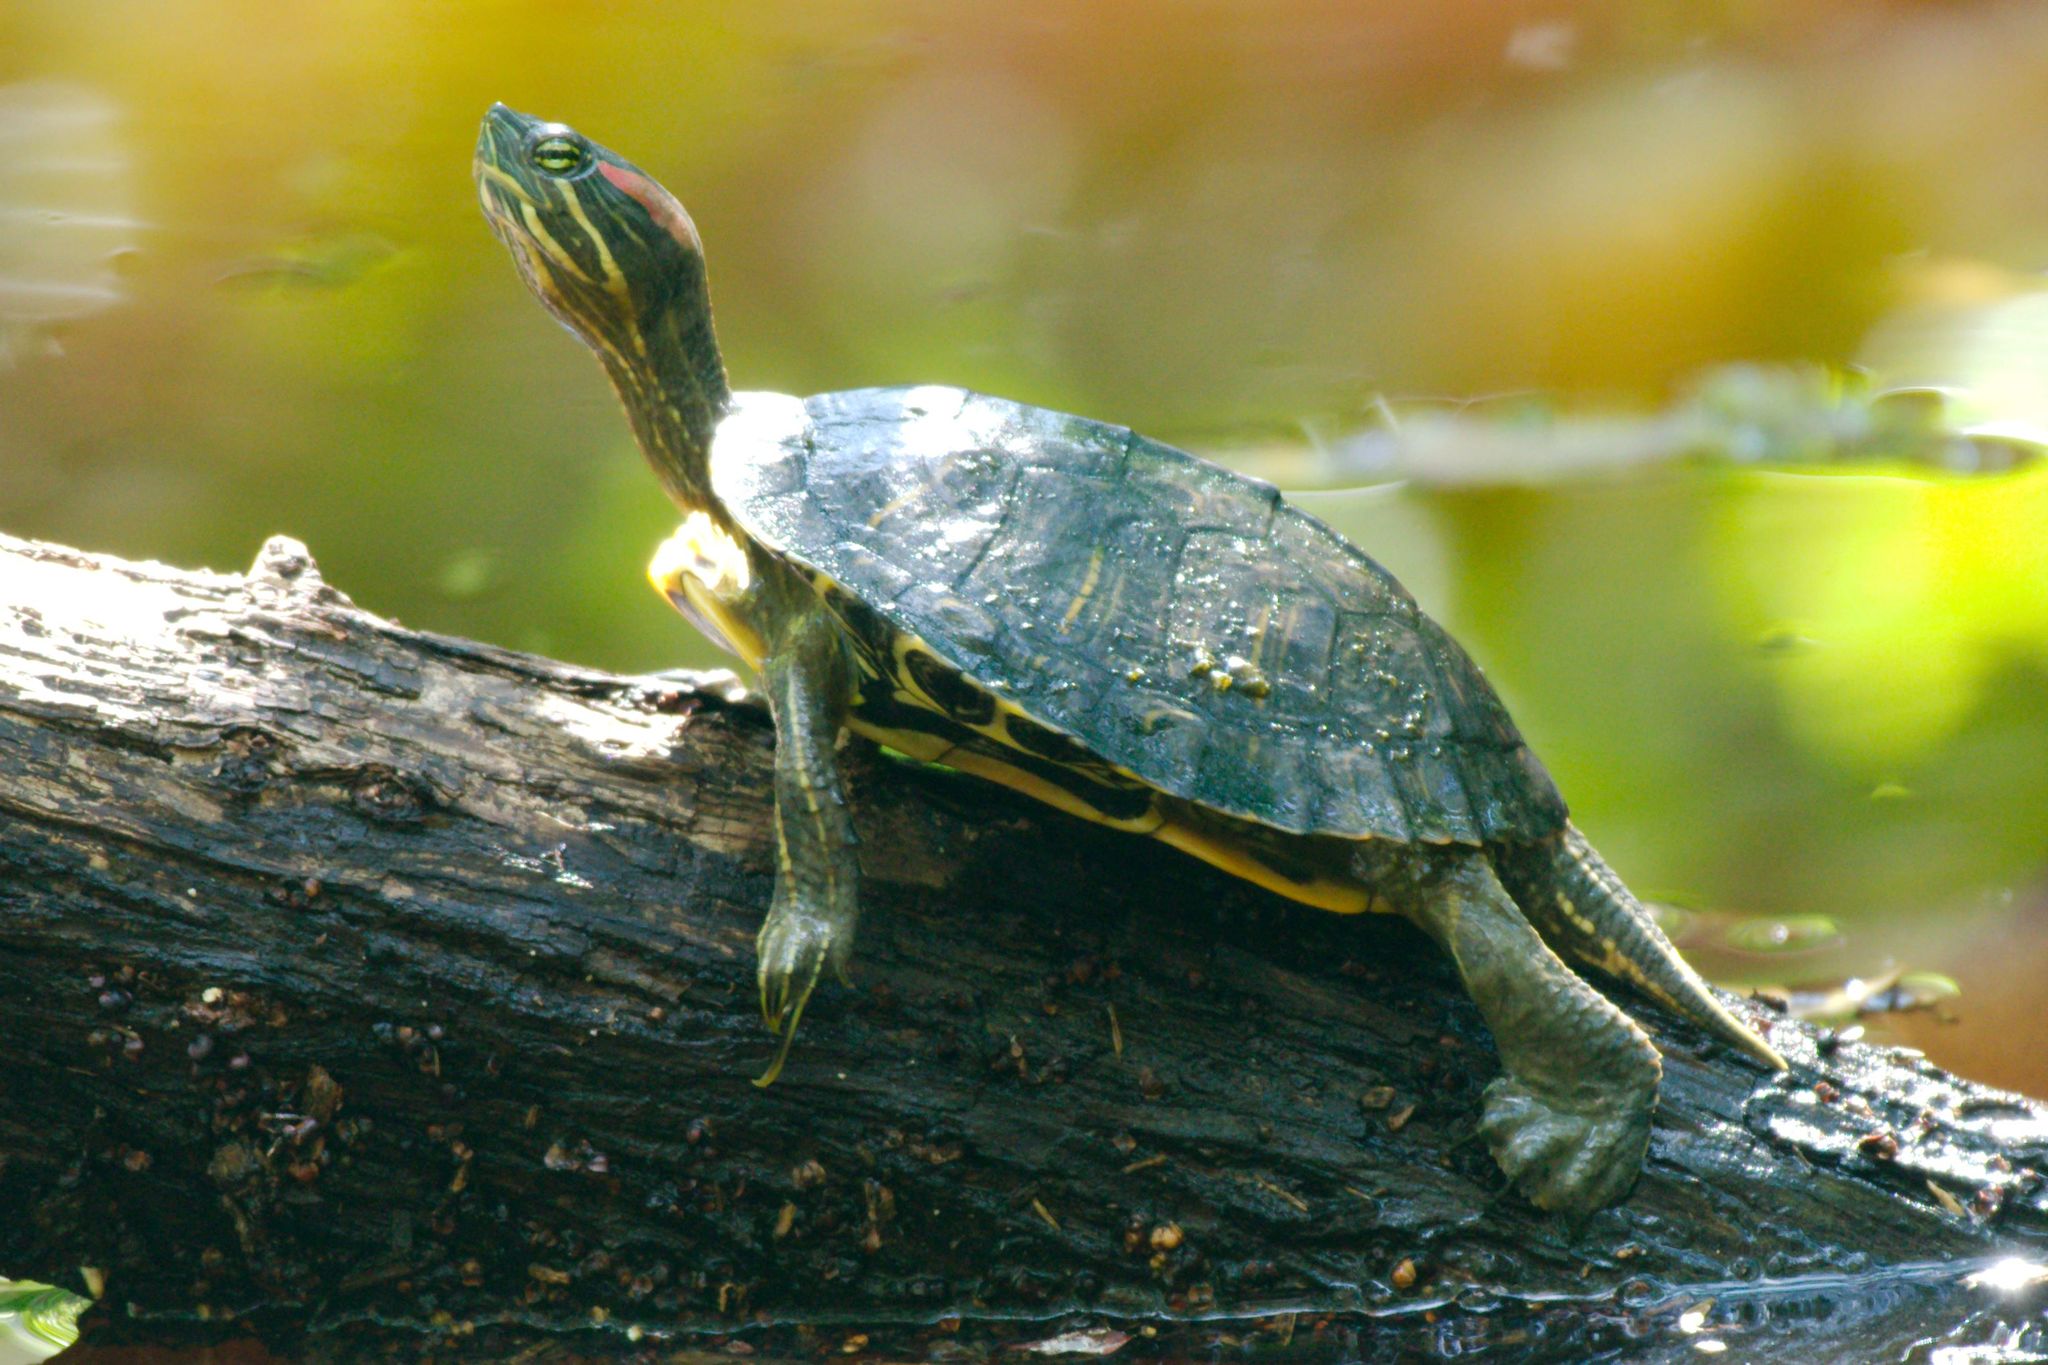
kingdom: Animalia
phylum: Chordata
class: Testudines
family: Emydidae
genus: Trachemys
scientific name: Trachemys scripta
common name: Slider
